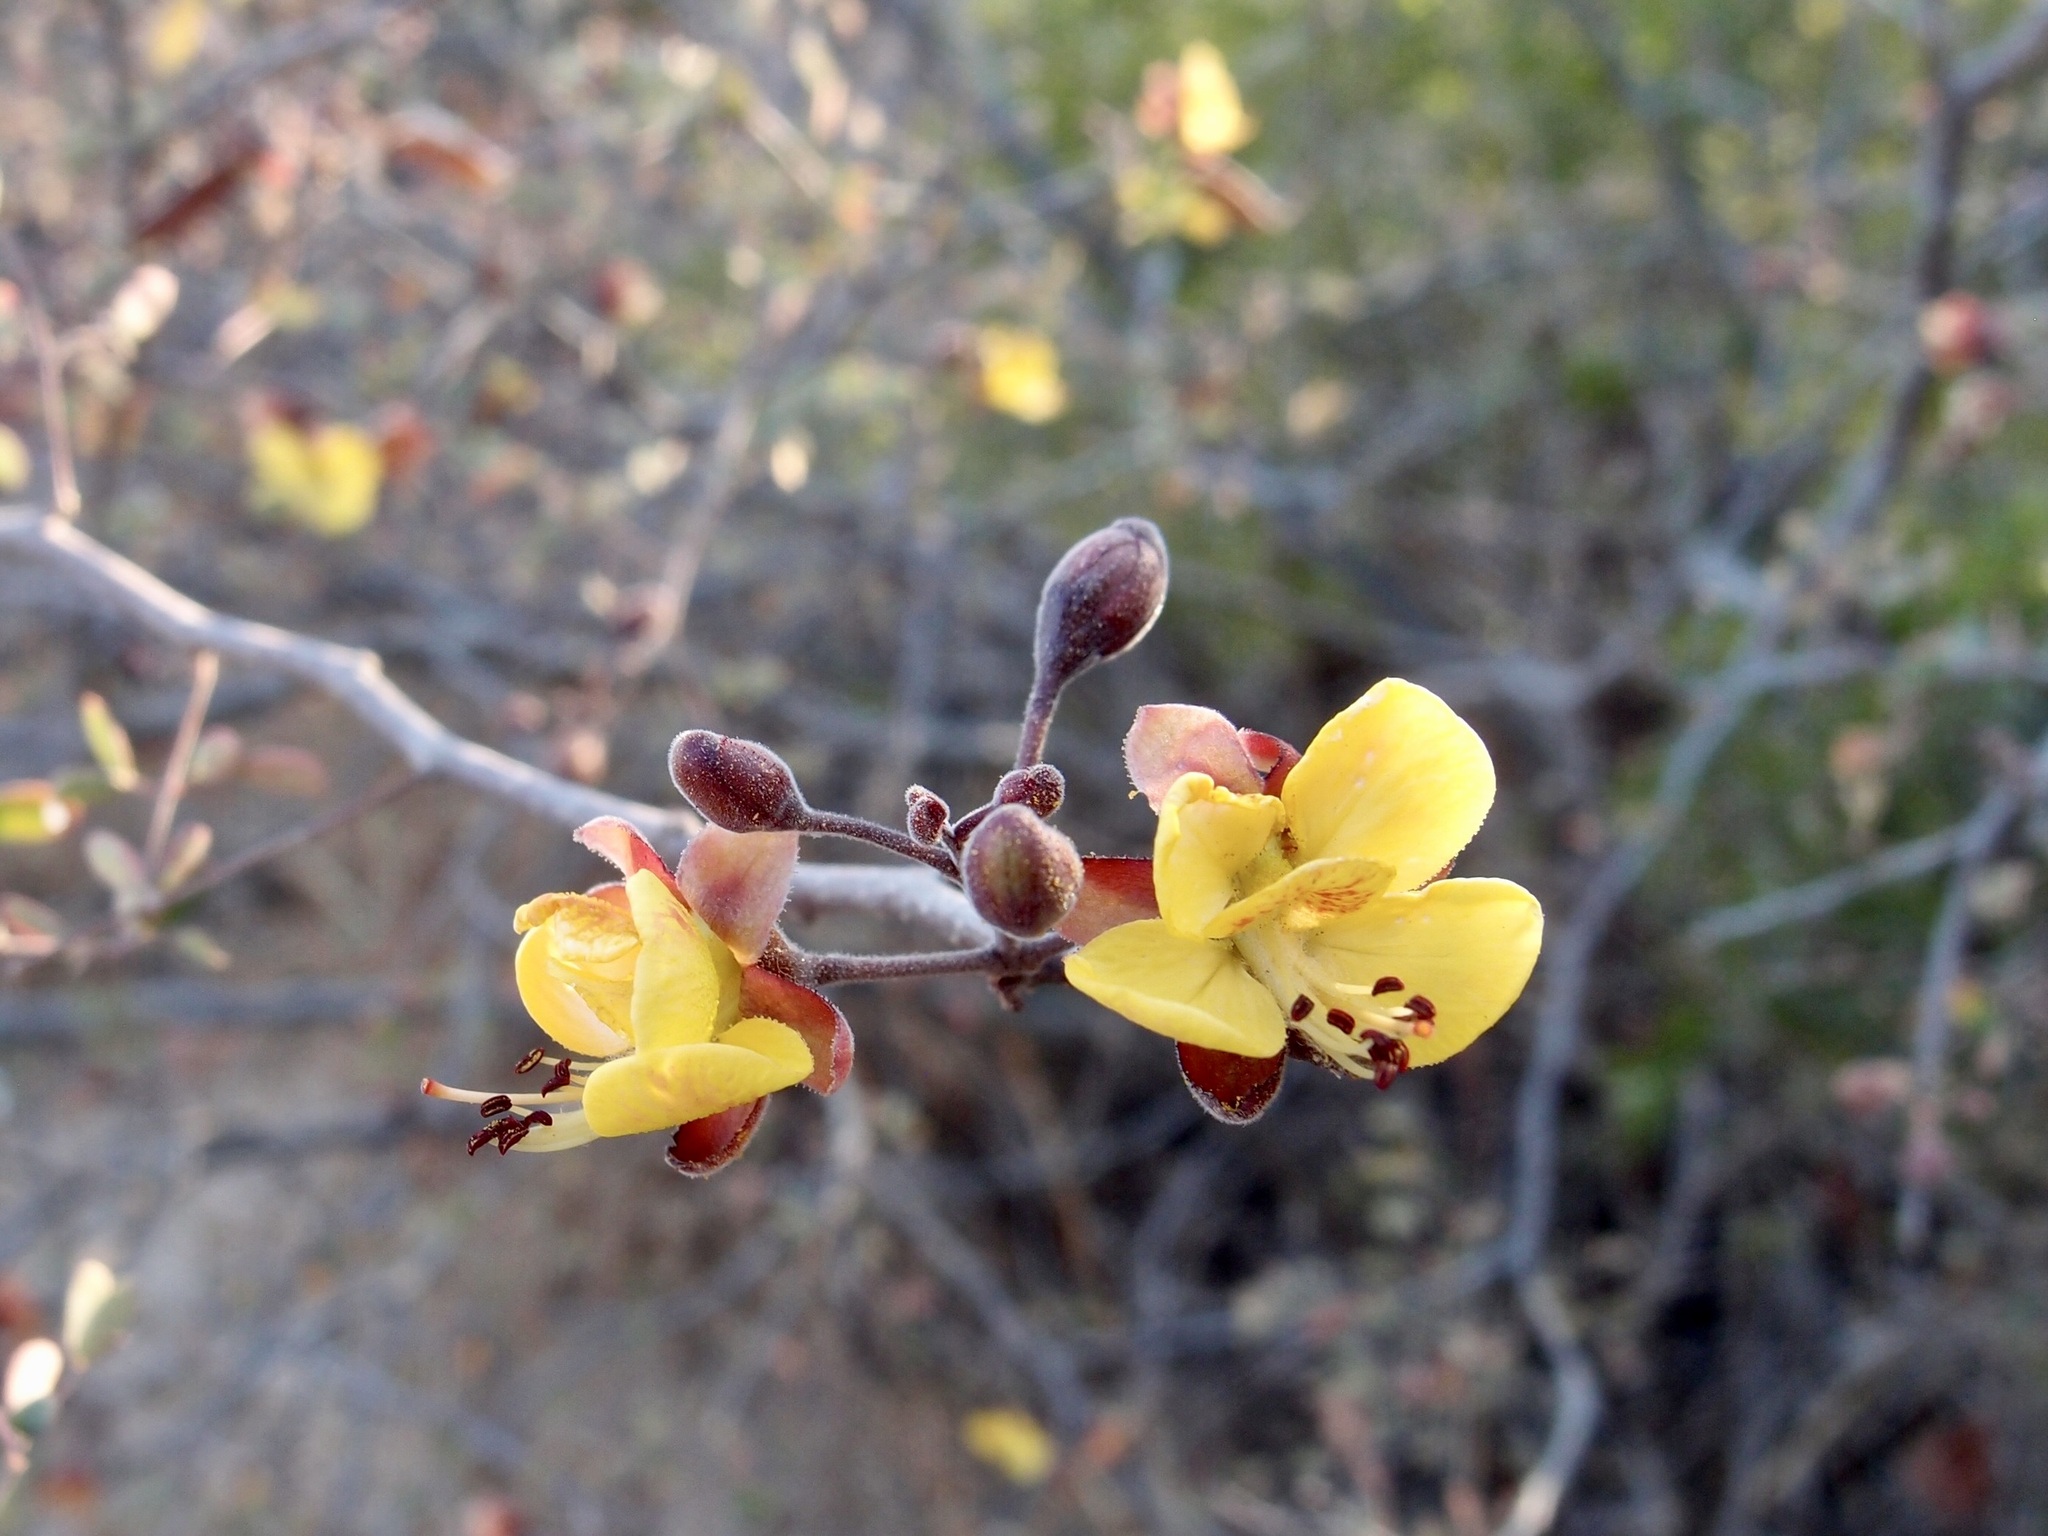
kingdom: Plantae
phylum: Tracheophyta
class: Magnoliopsida
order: Fabales
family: Fabaceae
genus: Erythrostemon
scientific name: Erythrostemon palmeri
